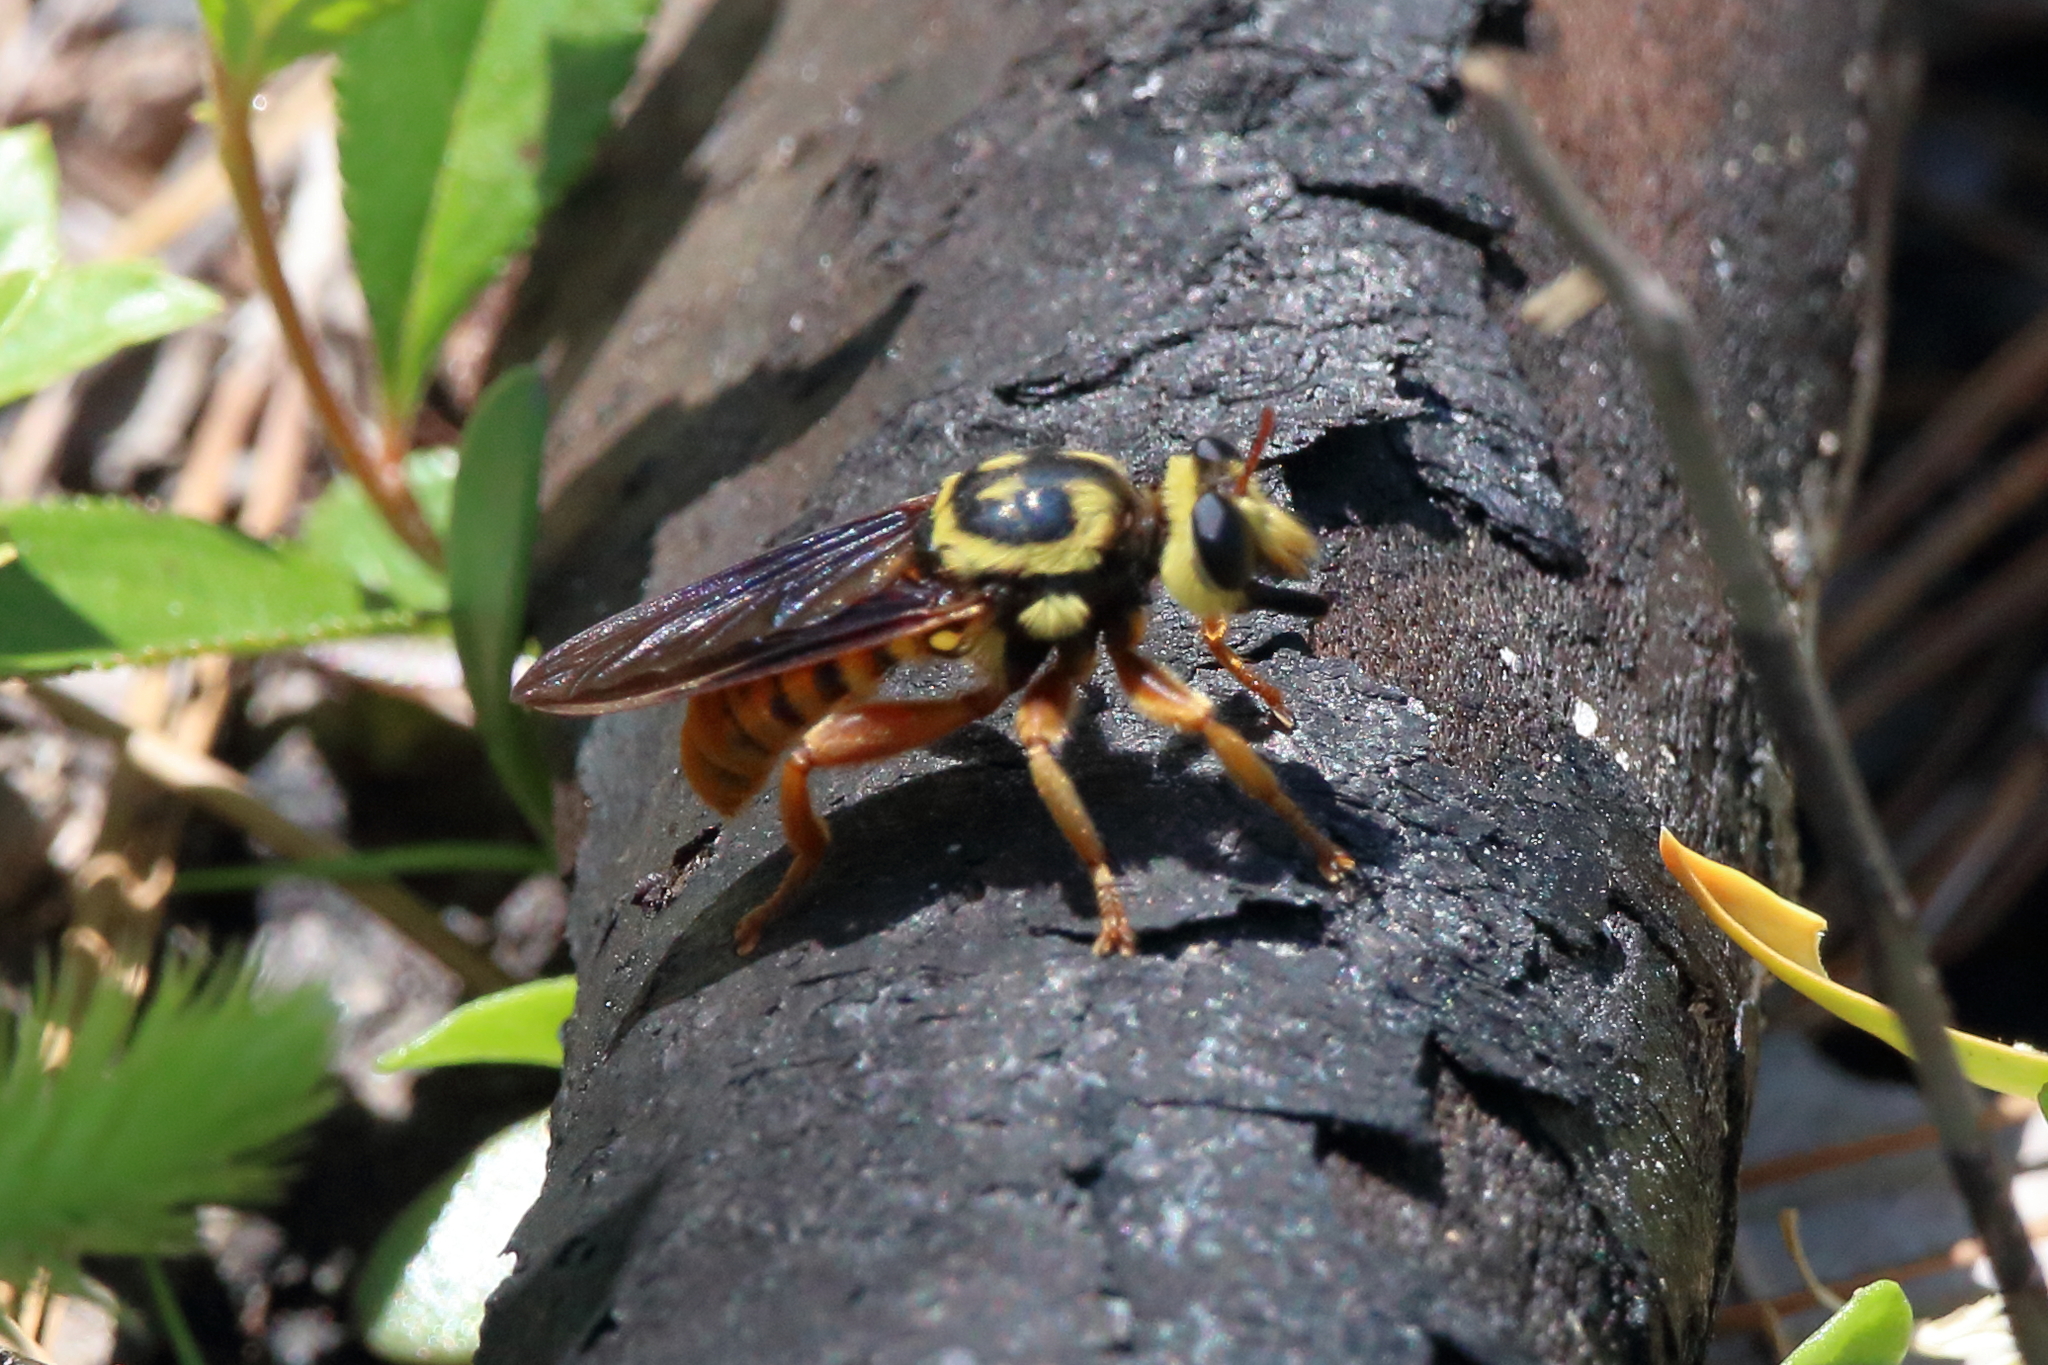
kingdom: Animalia
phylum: Arthropoda
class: Insecta
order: Diptera
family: Asilidae
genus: Laphria
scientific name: Laphria saffrana
